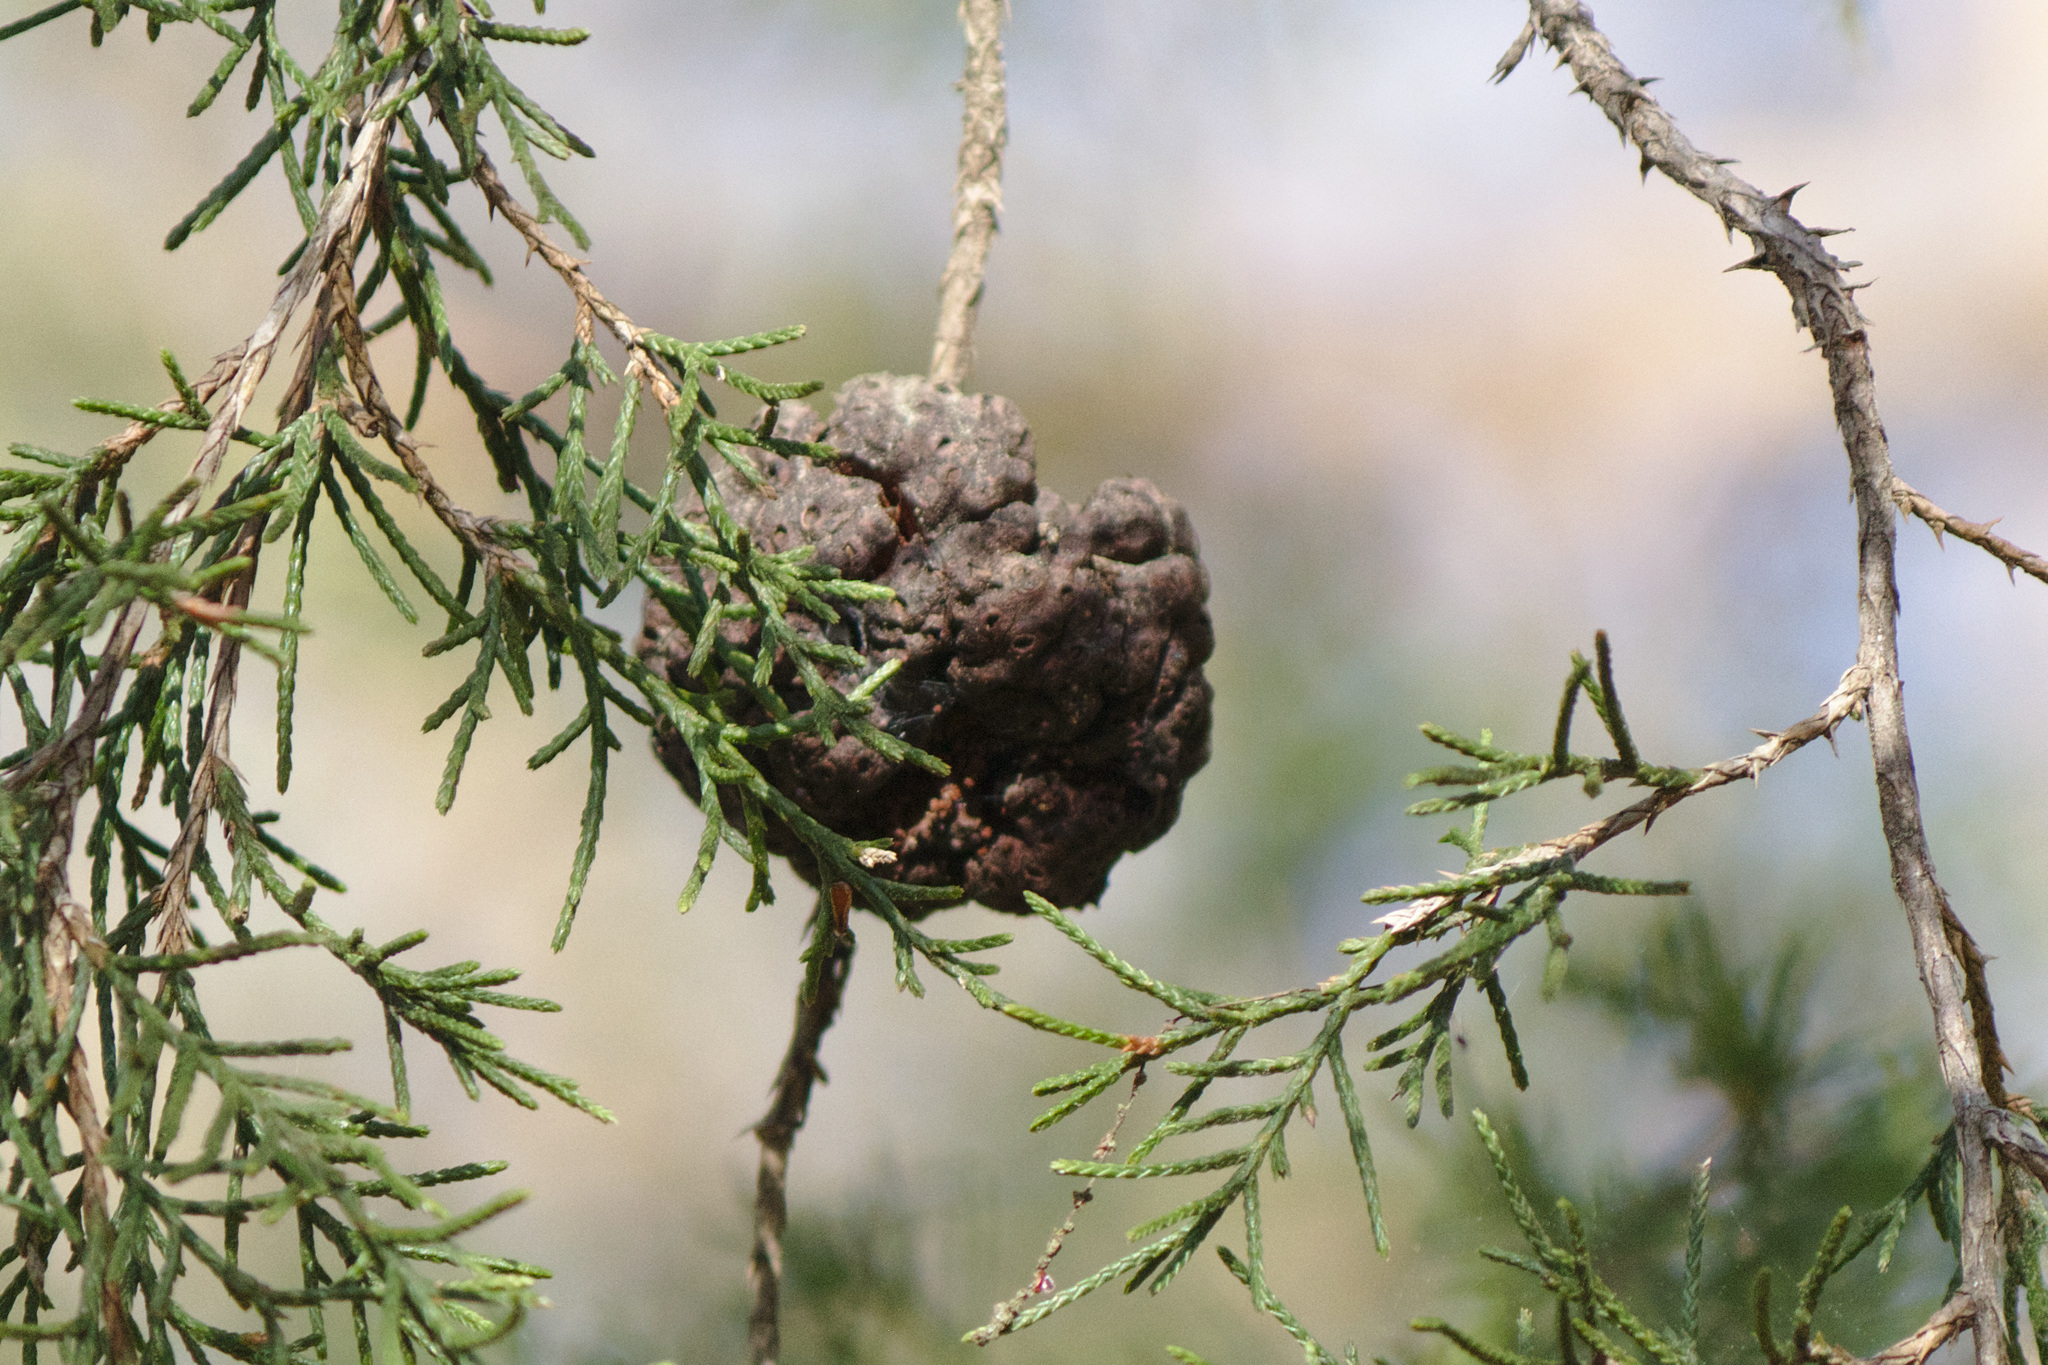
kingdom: Fungi
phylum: Basidiomycota
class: Pucciniomycetes
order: Pucciniales
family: Gymnosporangiaceae
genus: Gymnosporangium
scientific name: Gymnosporangium juniperi-virginianae
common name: Juniper-apple rust
